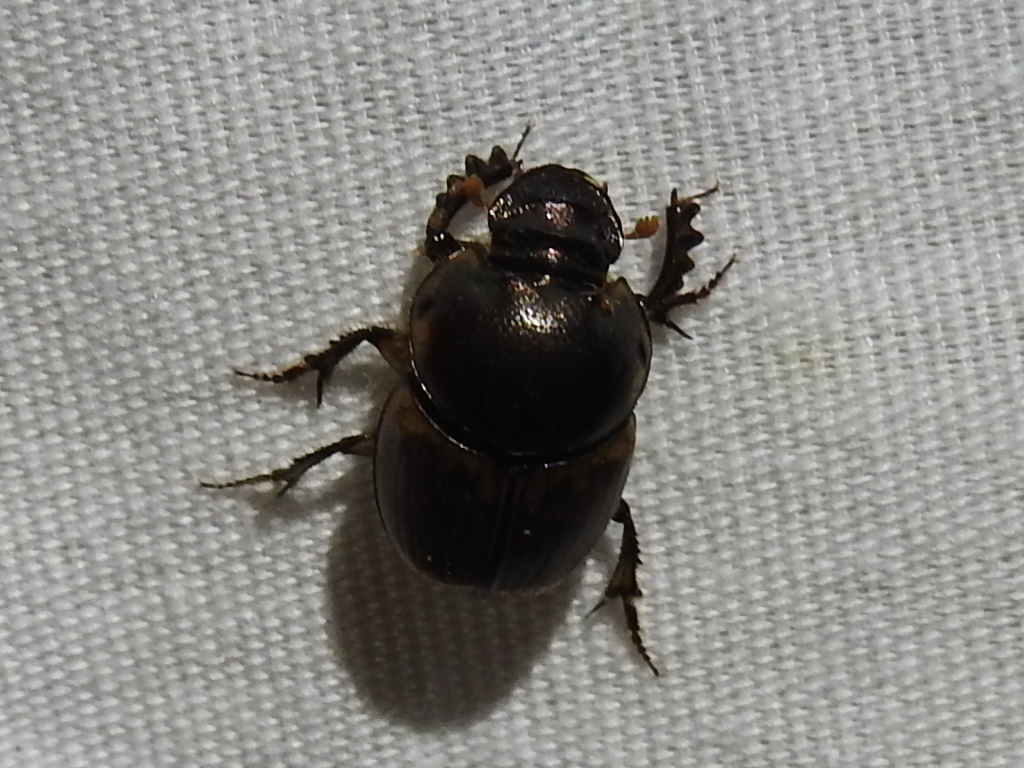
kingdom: Animalia
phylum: Arthropoda
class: Insecta
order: Coleoptera
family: Scarabaeidae
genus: Digitonthophagus
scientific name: Digitonthophagus gazella
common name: Brown dung beetle
